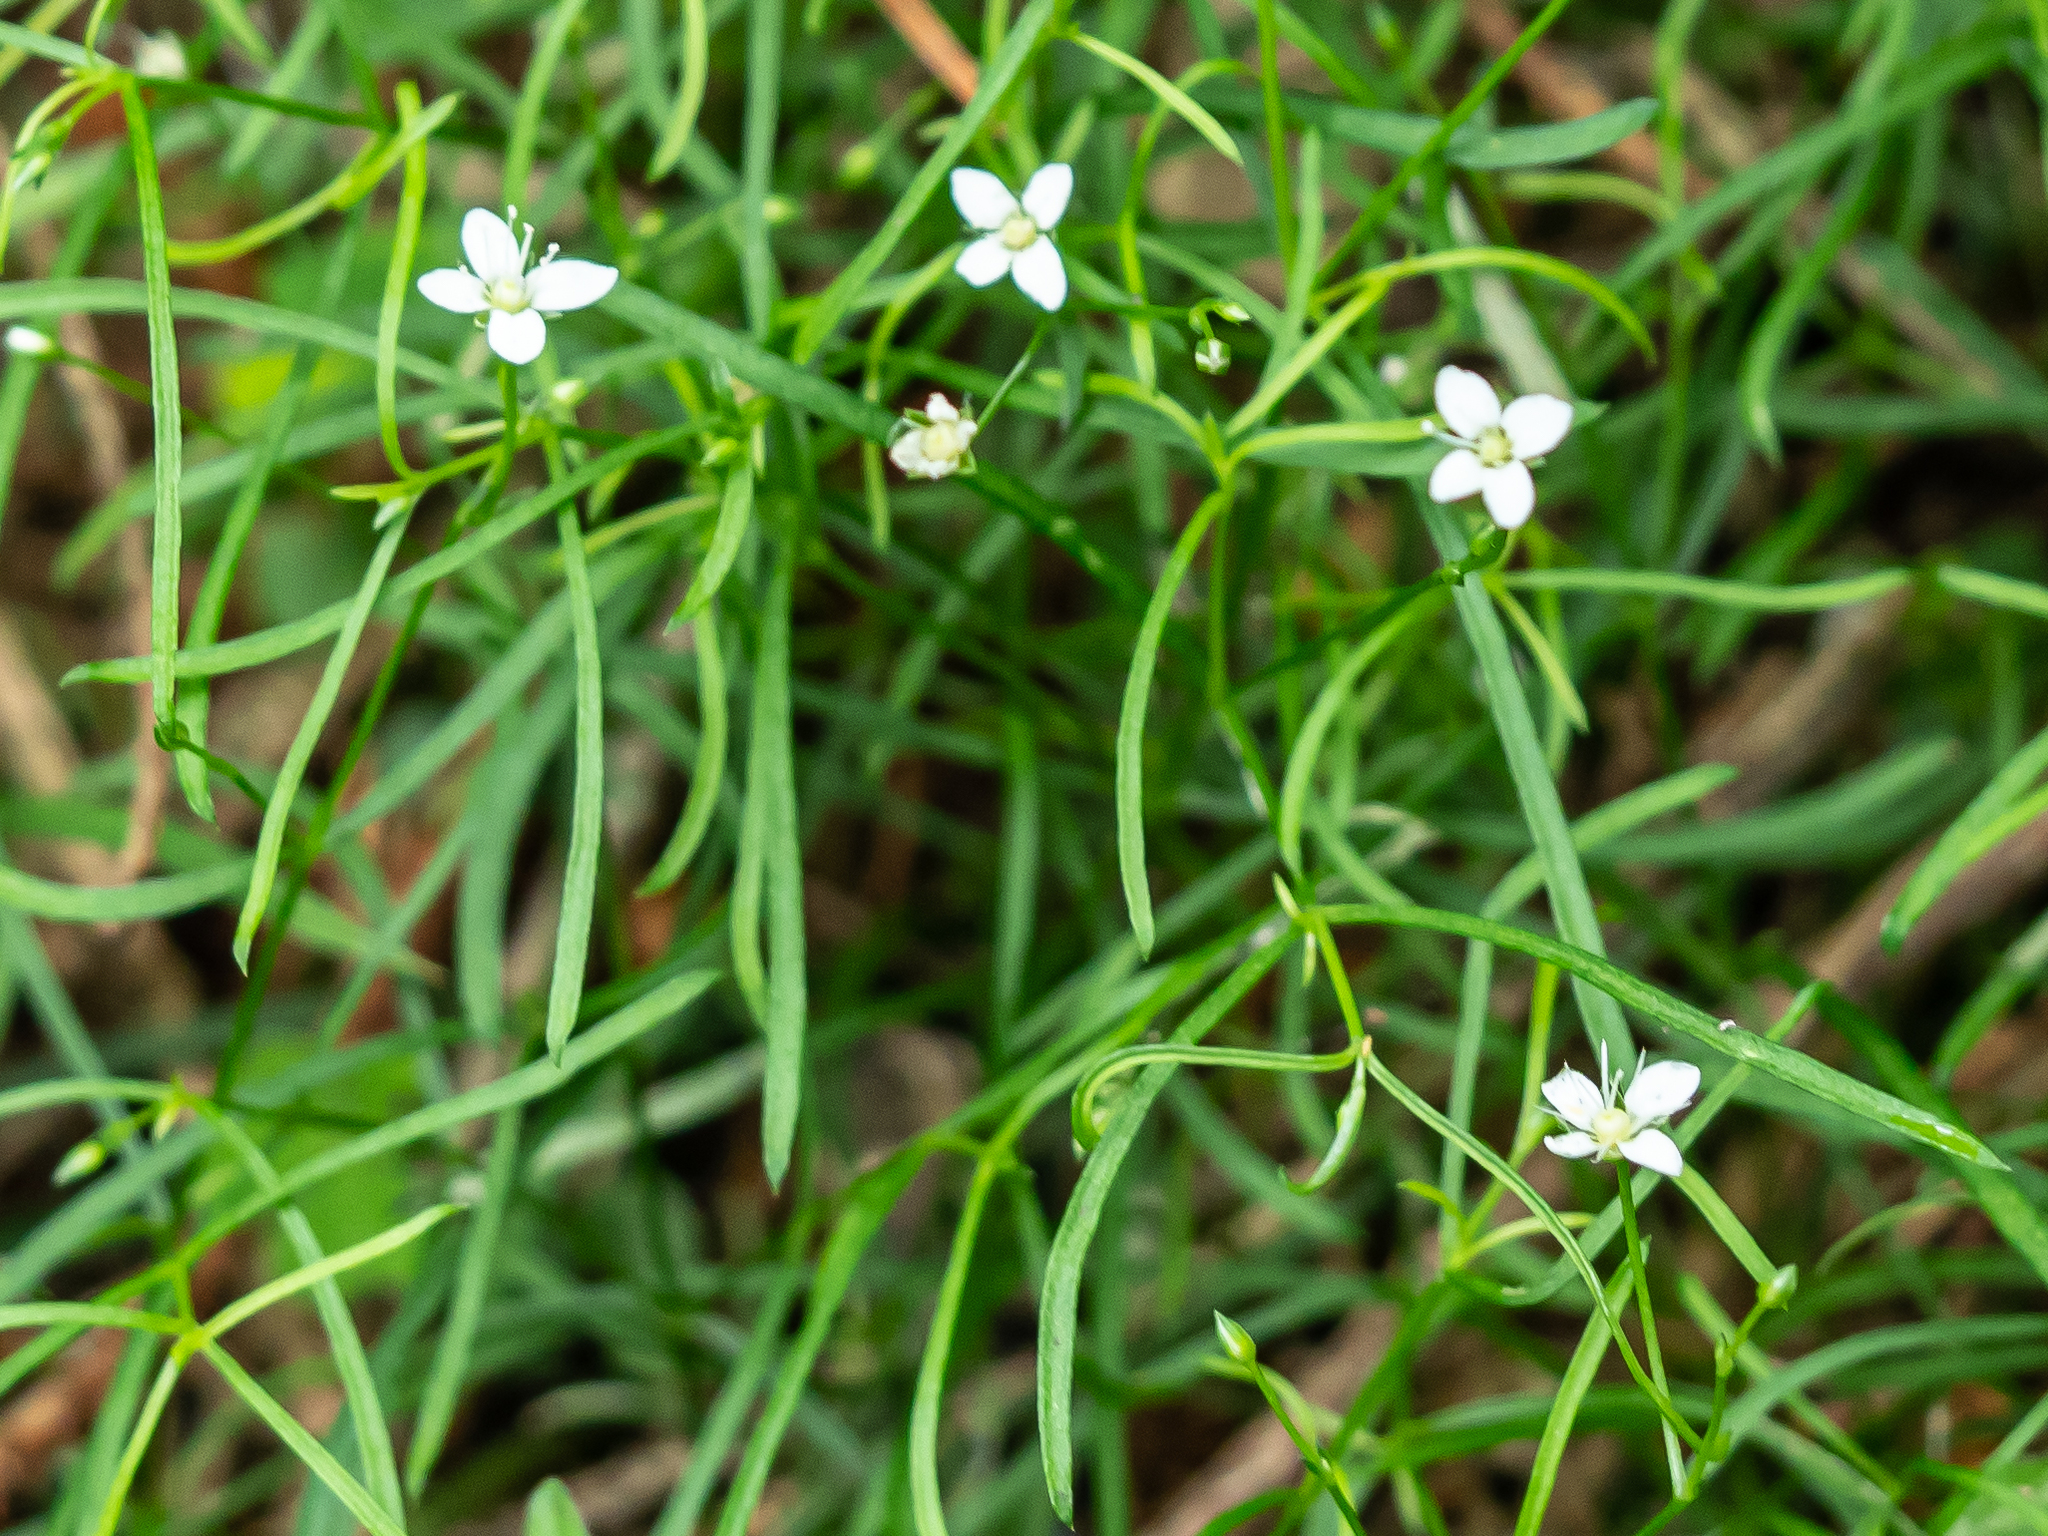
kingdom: Plantae
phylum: Tracheophyta
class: Magnoliopsida
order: Caryophyllales
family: Caryophyllaceae
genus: Moehringia
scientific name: Moehringia muscosa
